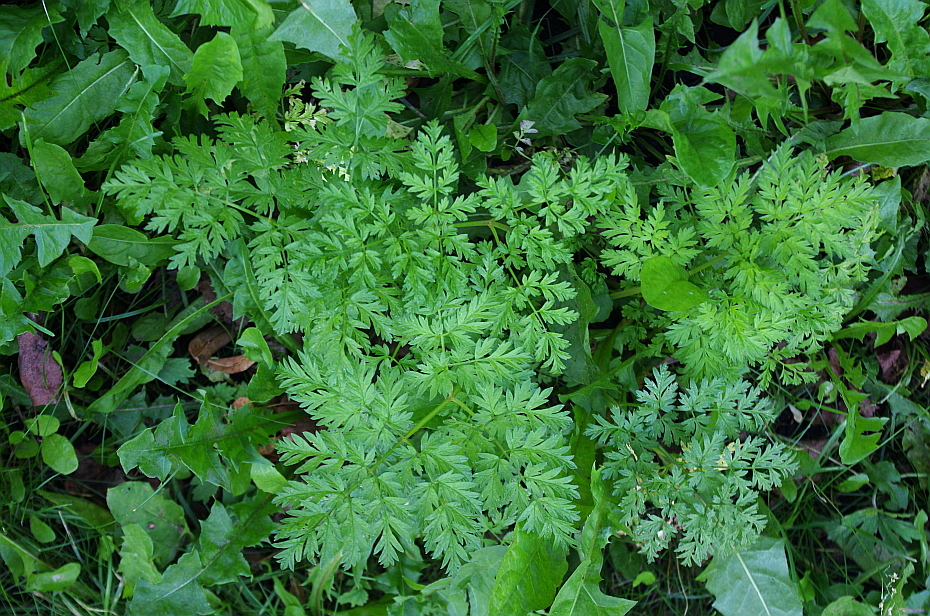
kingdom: Plantae
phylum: Tracheophyta
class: Magnoliopsida
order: Apiales
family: Apiaceae
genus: Anthriscus
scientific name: Anthriscus sylvestris
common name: Cow parsley
